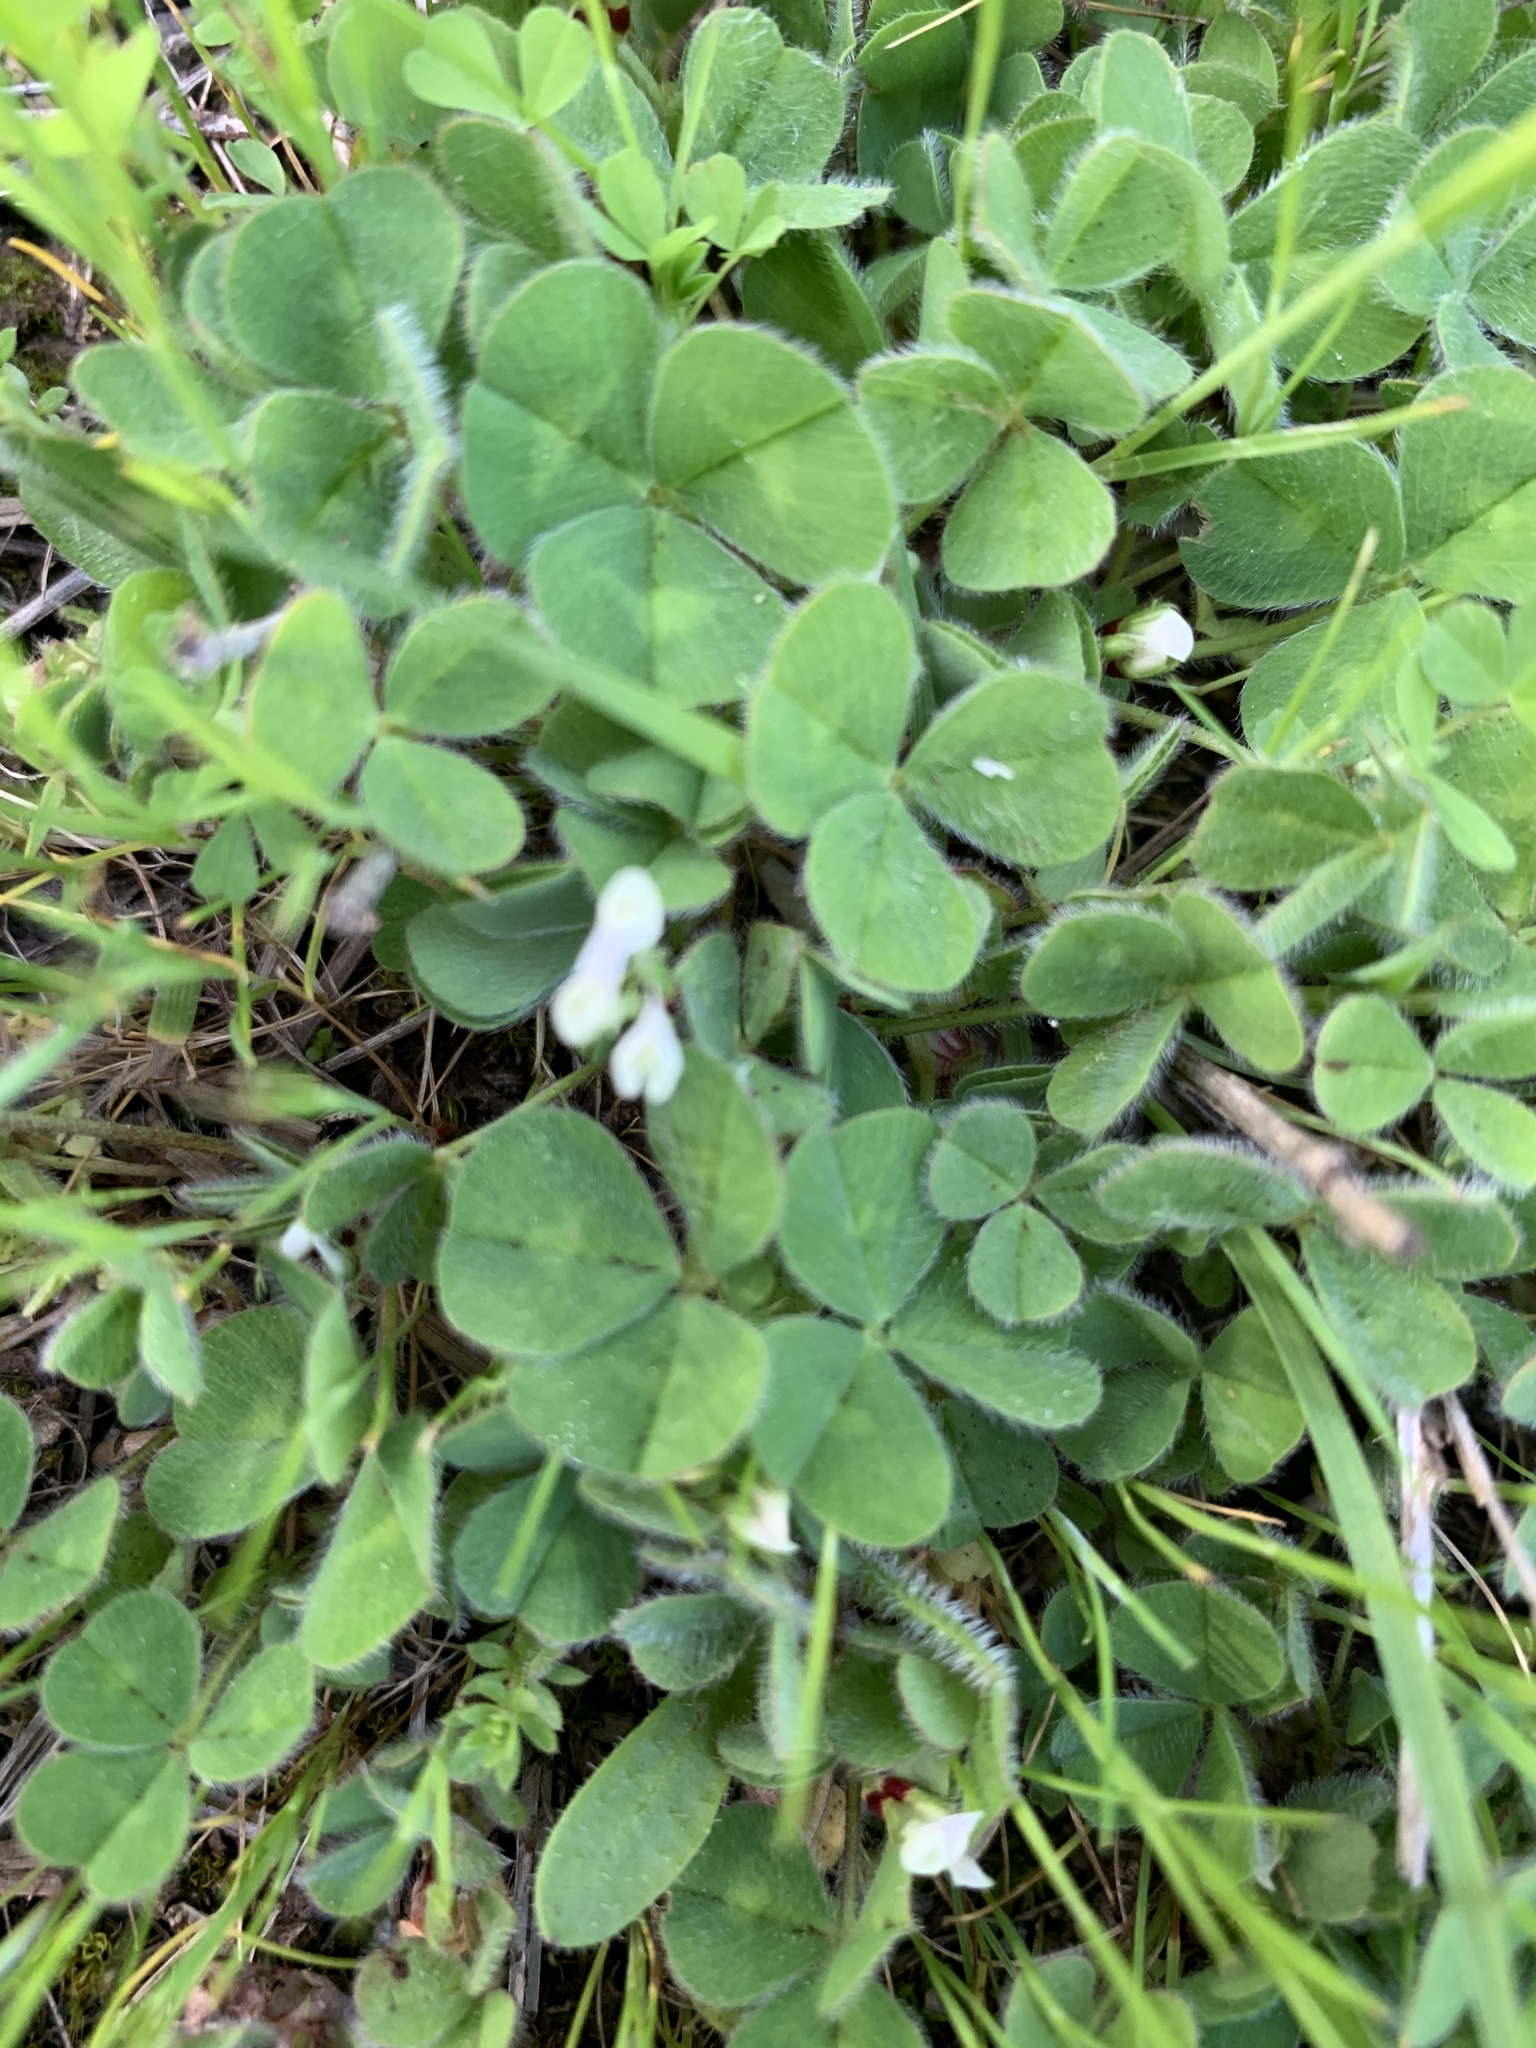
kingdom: Plantae
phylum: Tracheophyta
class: Magnoliopsida
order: Fabales
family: Fabaceae
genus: Trifolium
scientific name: Trifolium subterraneum
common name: Subterranean clover
